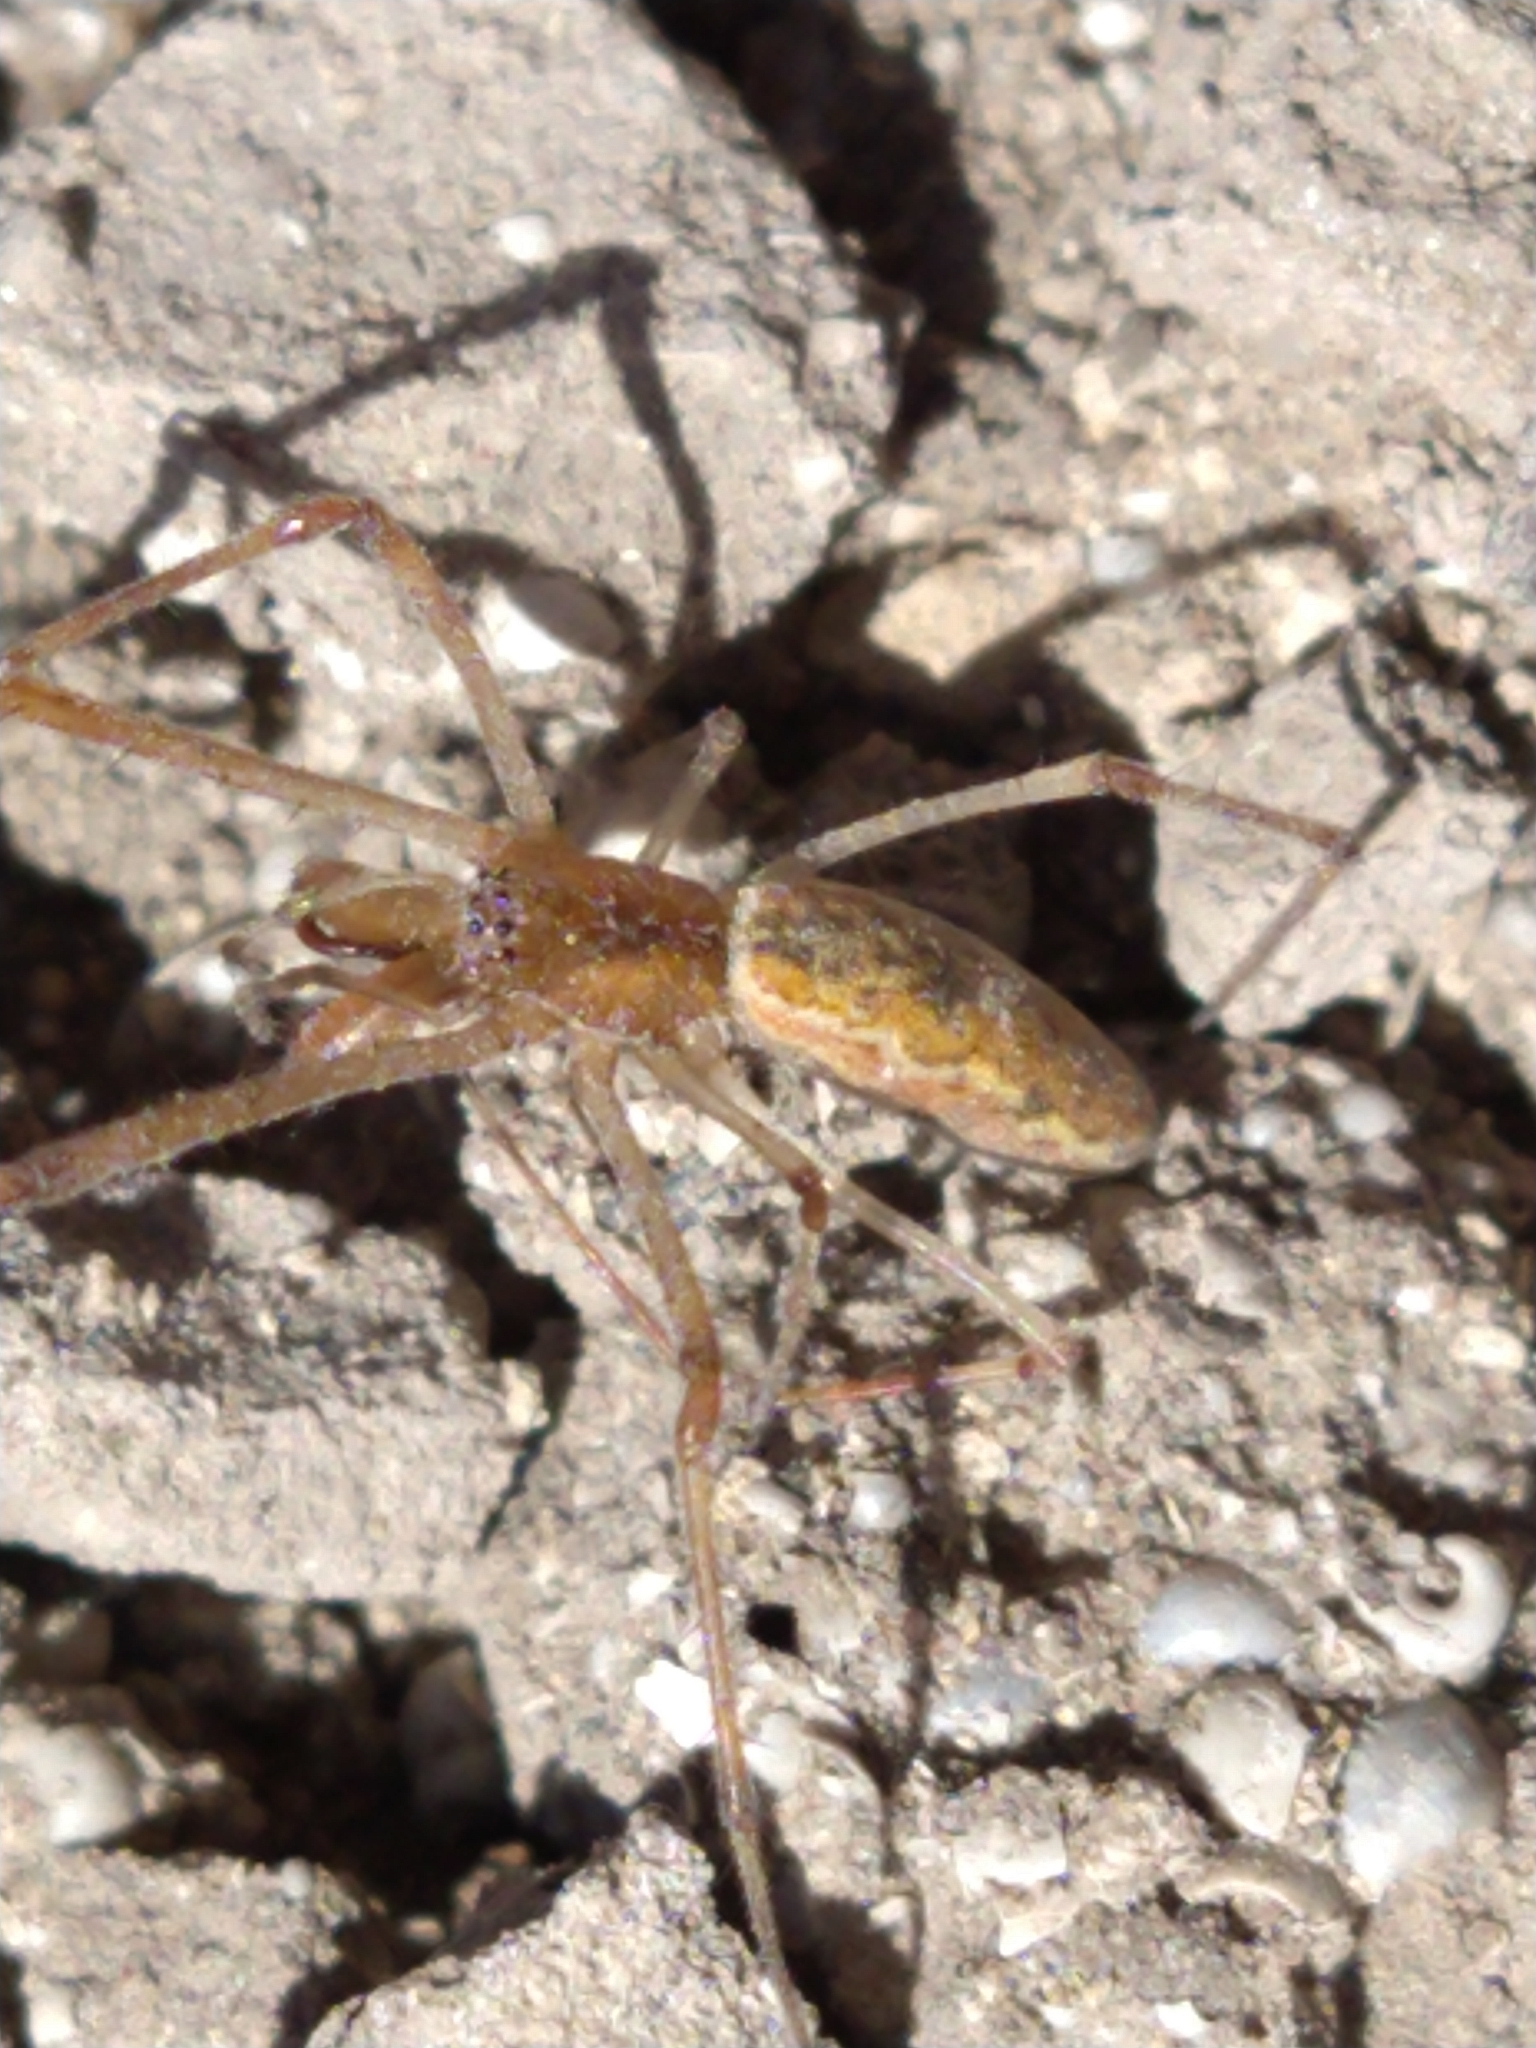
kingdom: Animalia
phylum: Arthropoda
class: Arachnida
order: Araneae
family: Tetragnathidae
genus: Tetragnatha
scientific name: Tetragnatha
